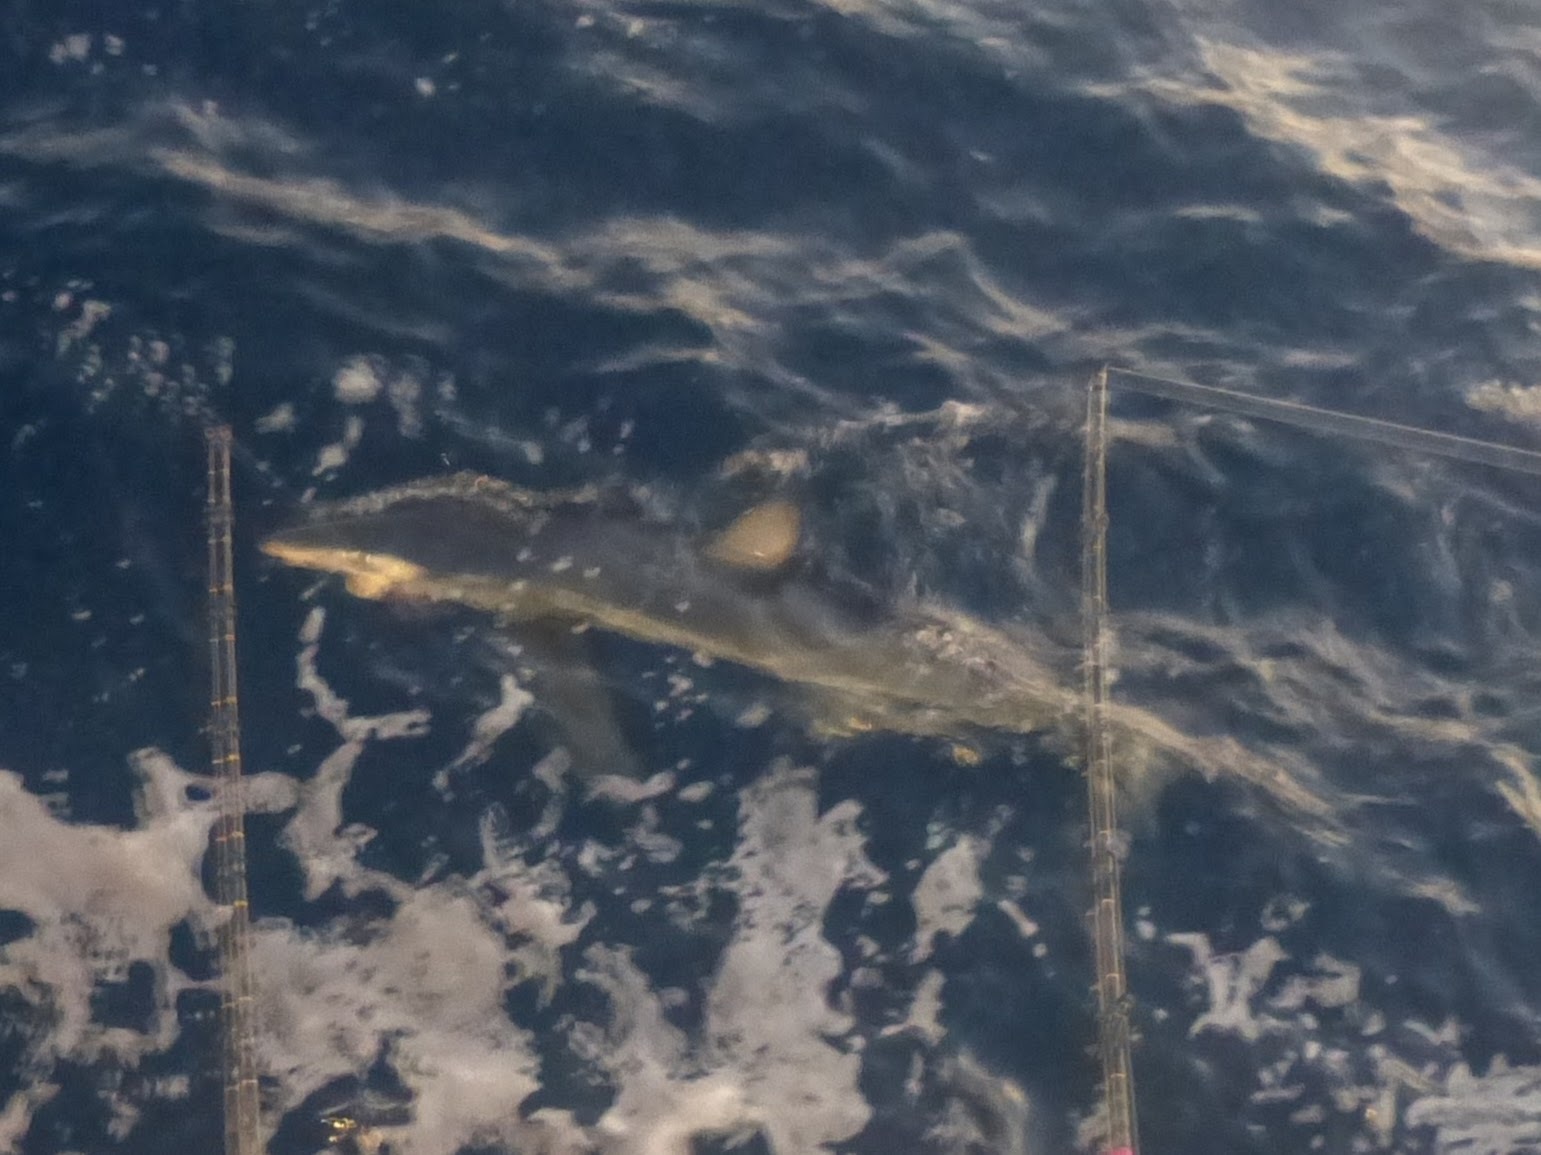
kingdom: Animalia
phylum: Chordata
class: Elasmobranchii
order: Carcharhiniformes
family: Carcharhinidae
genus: Prionace
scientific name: Prionace glauca
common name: Blue shark
